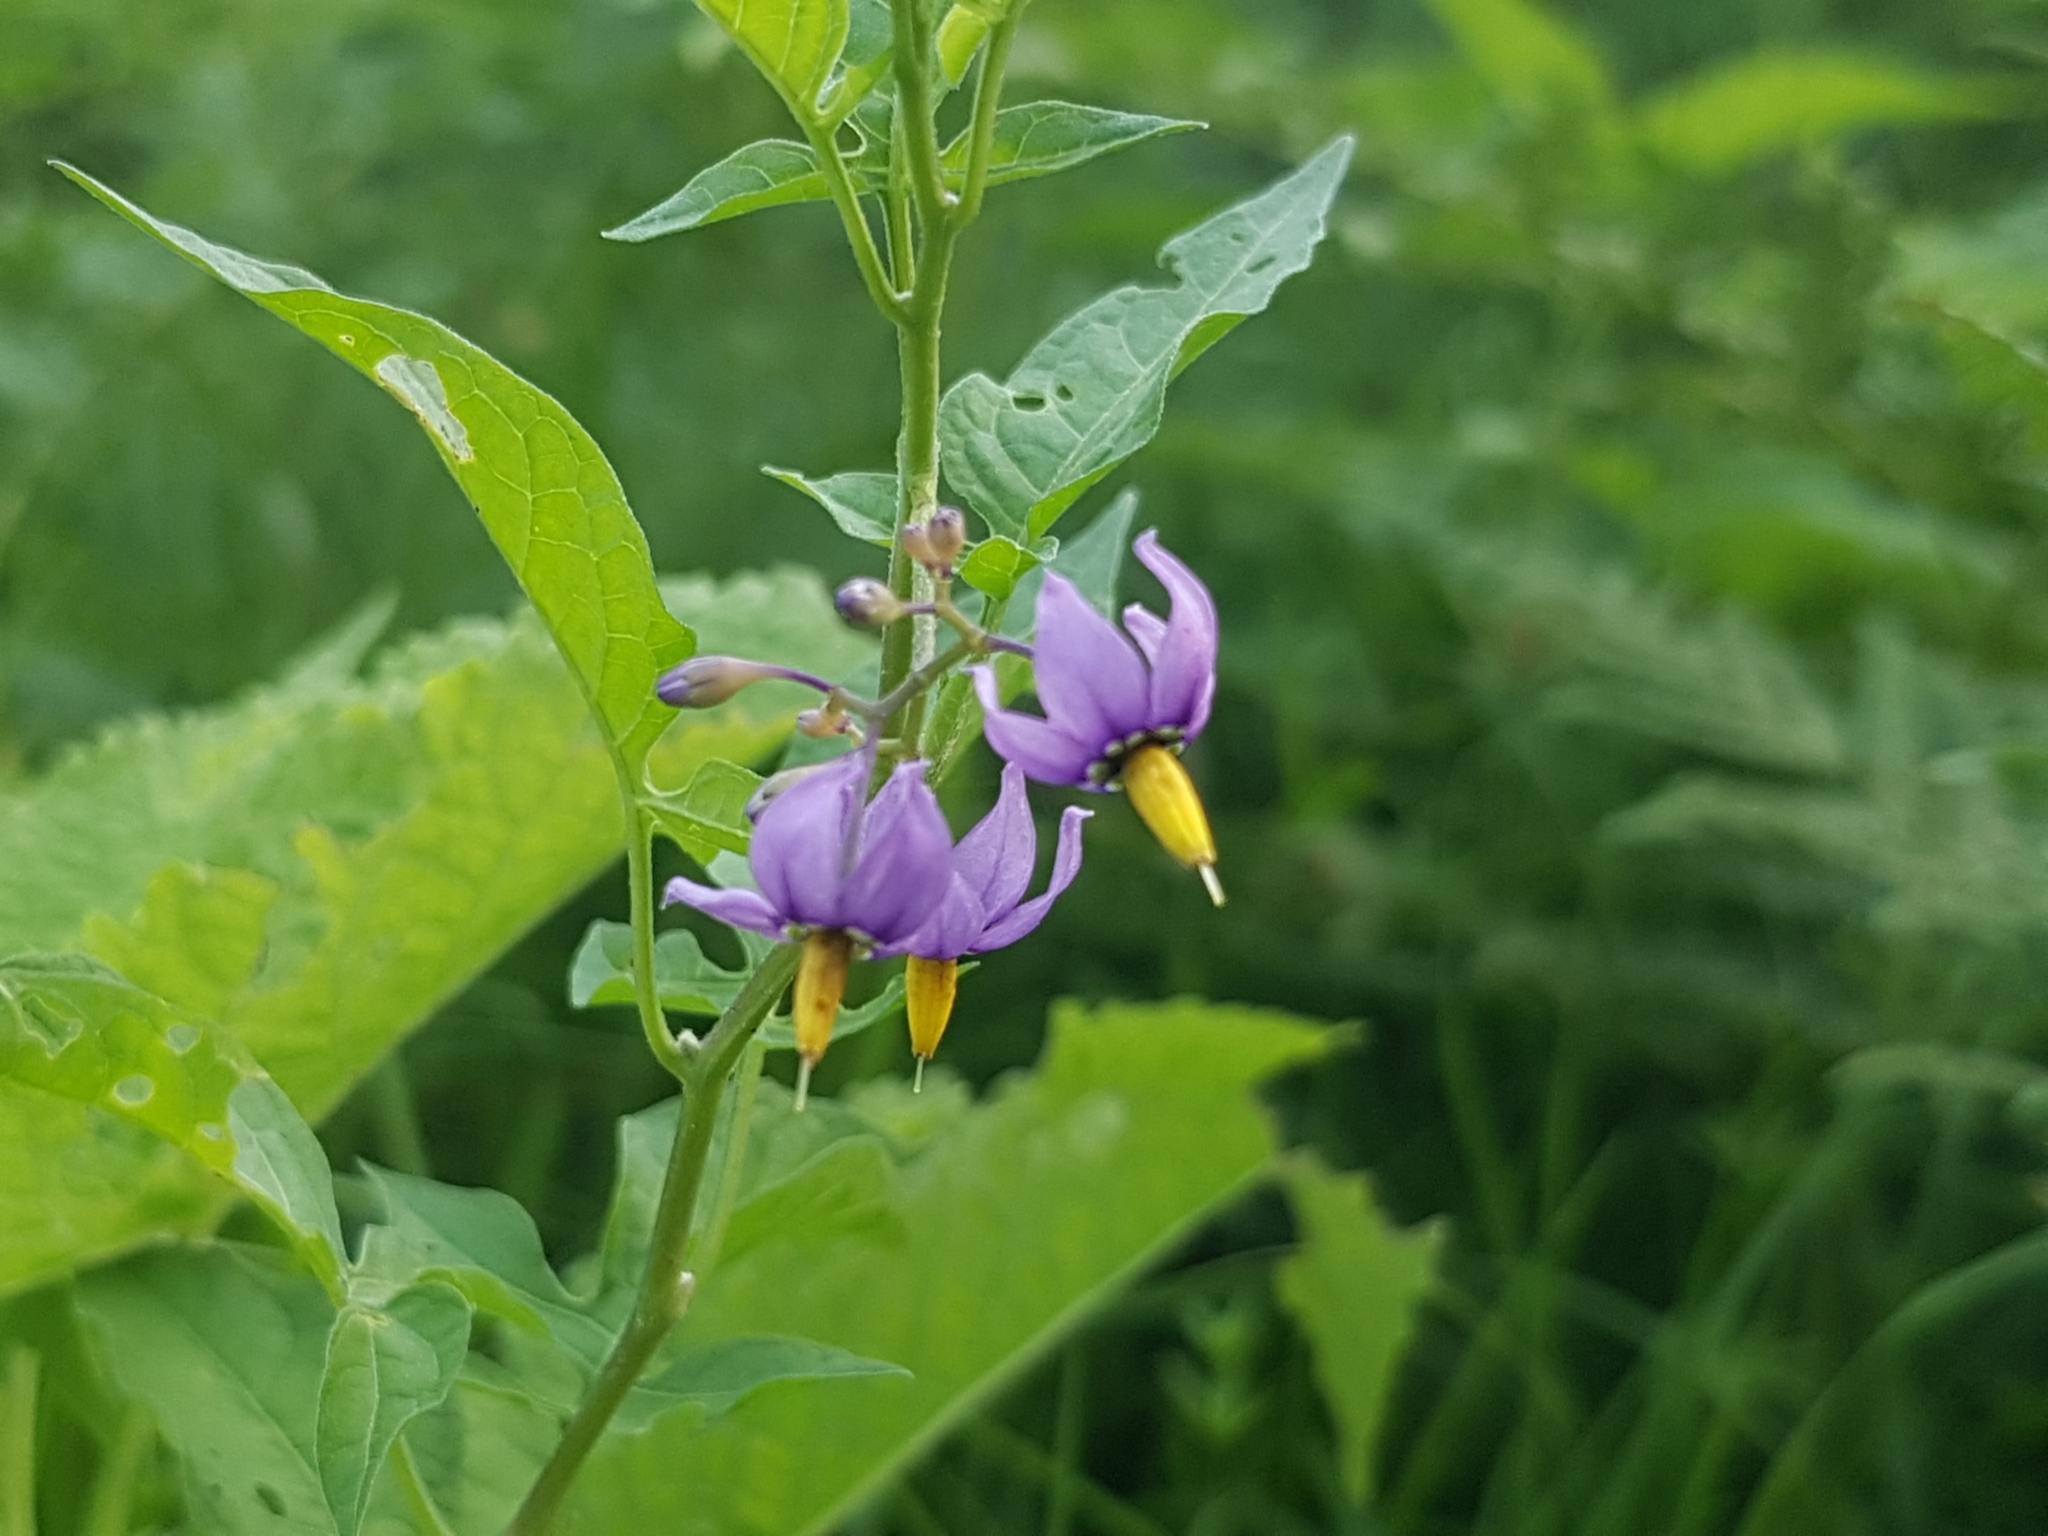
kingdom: Plantae
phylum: Tracheophyta
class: Magnoliopsida
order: Solanales
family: Solanaceae
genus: Solanum
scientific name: Solanum dulcamara
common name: Climbing nightshade
